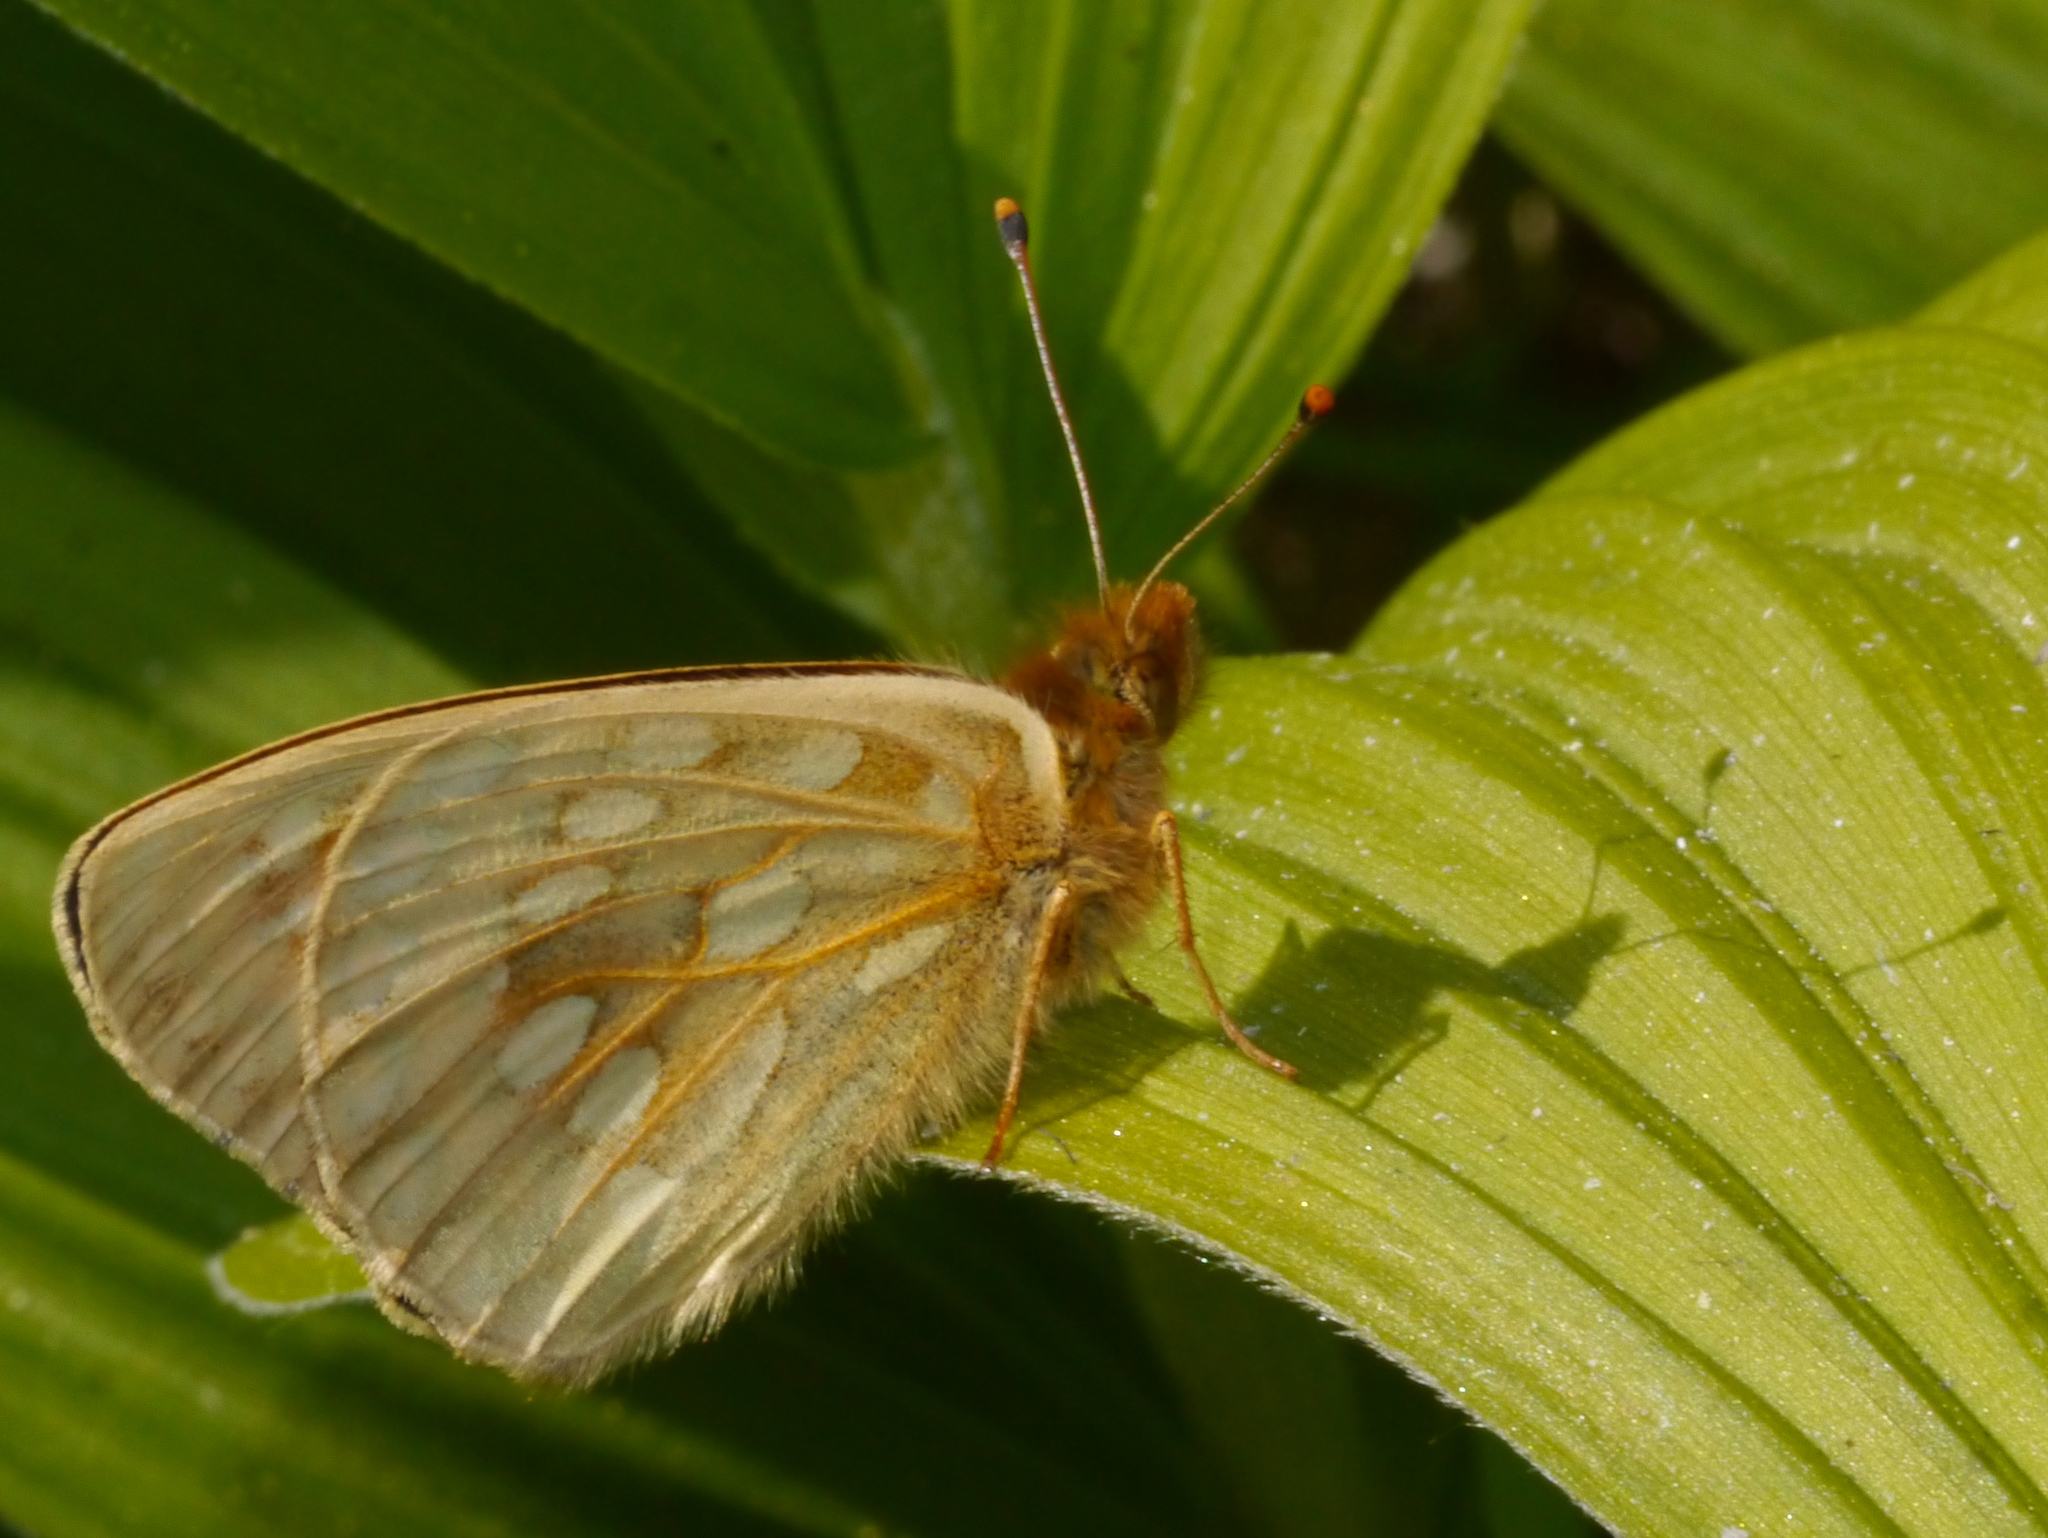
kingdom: Animalia
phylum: Arthropoda
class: Insecta
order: Lepidoptera
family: Nymphalidae
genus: Speyeria
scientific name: Speyeria mormonia
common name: Mormon fritillary
